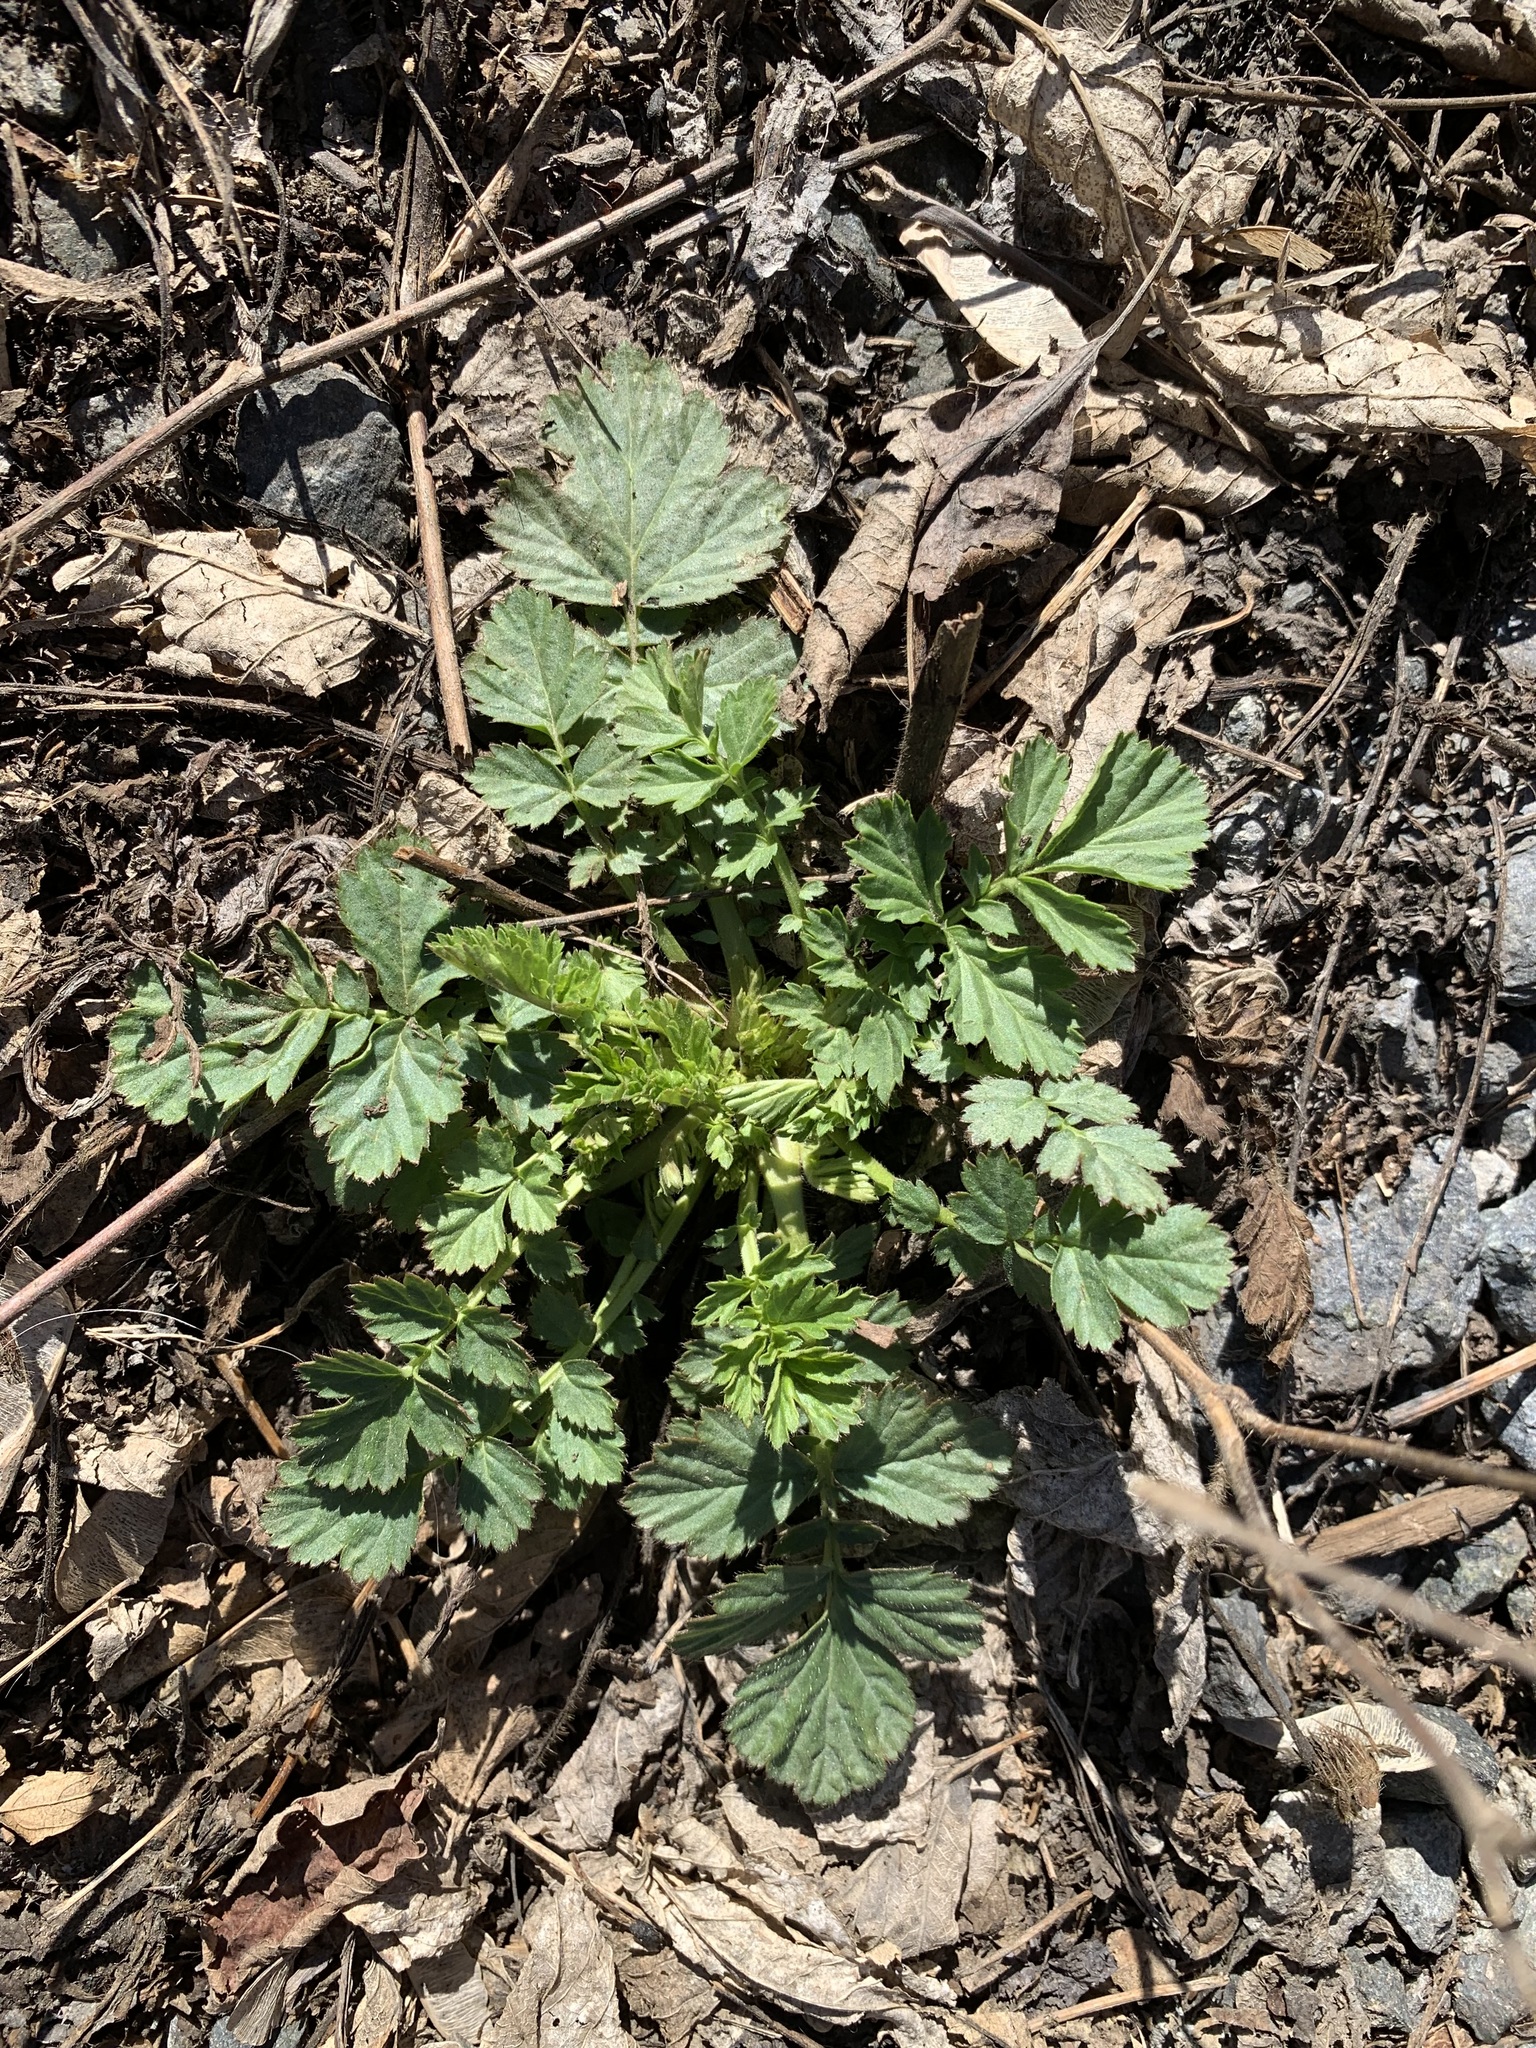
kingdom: Plantae
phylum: Tracheophyta
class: Magnoliopsida
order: Rosales
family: Rosaceae
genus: Geum
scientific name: Geum aleppicum
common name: Yellow avens
